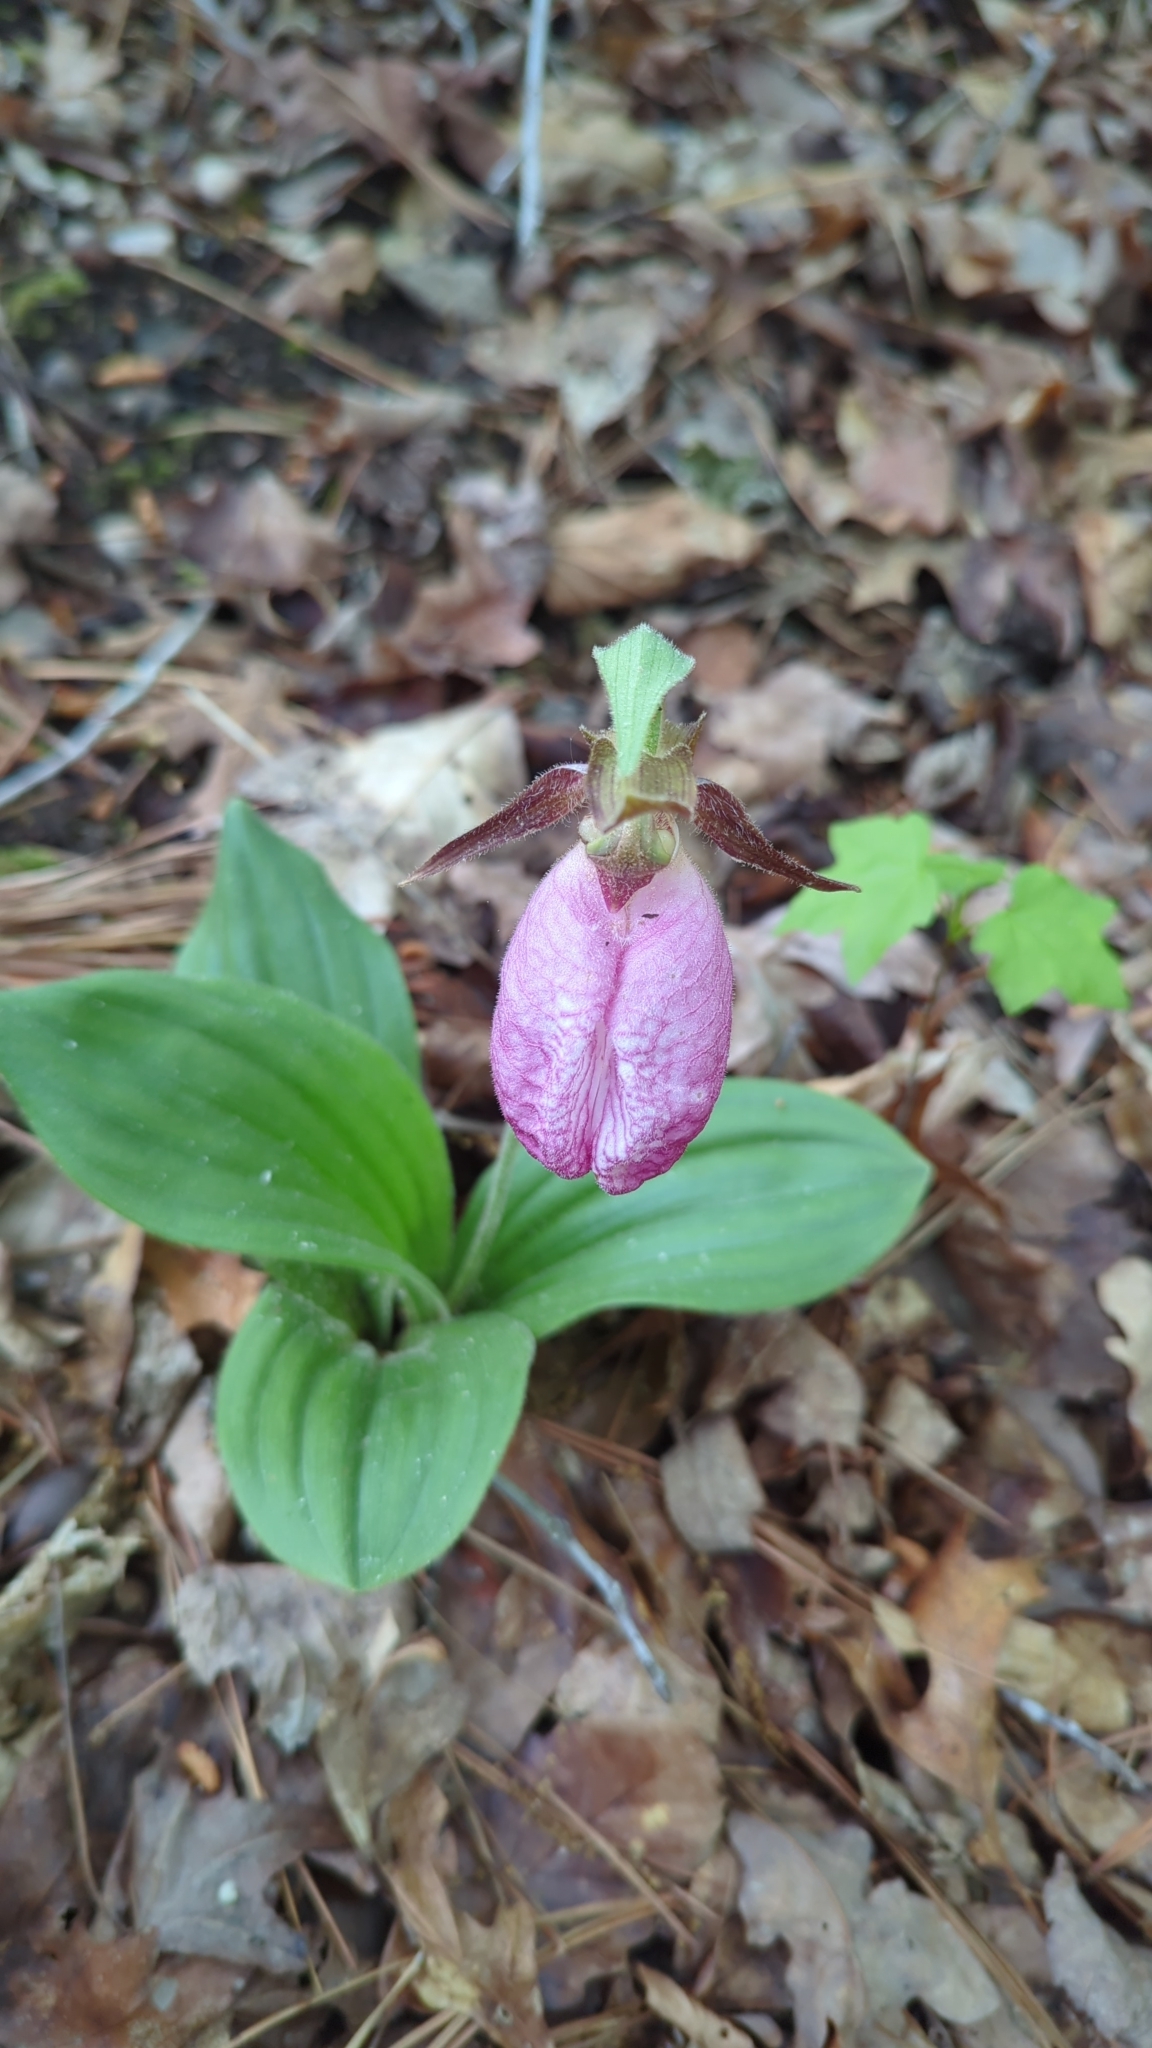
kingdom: Plantae
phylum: Tracheophyta
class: Liliopsida
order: Asparagales
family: Orchidaceae
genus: Cypripedium
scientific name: Cypripedium acaule
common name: Pink lady's-slipper
